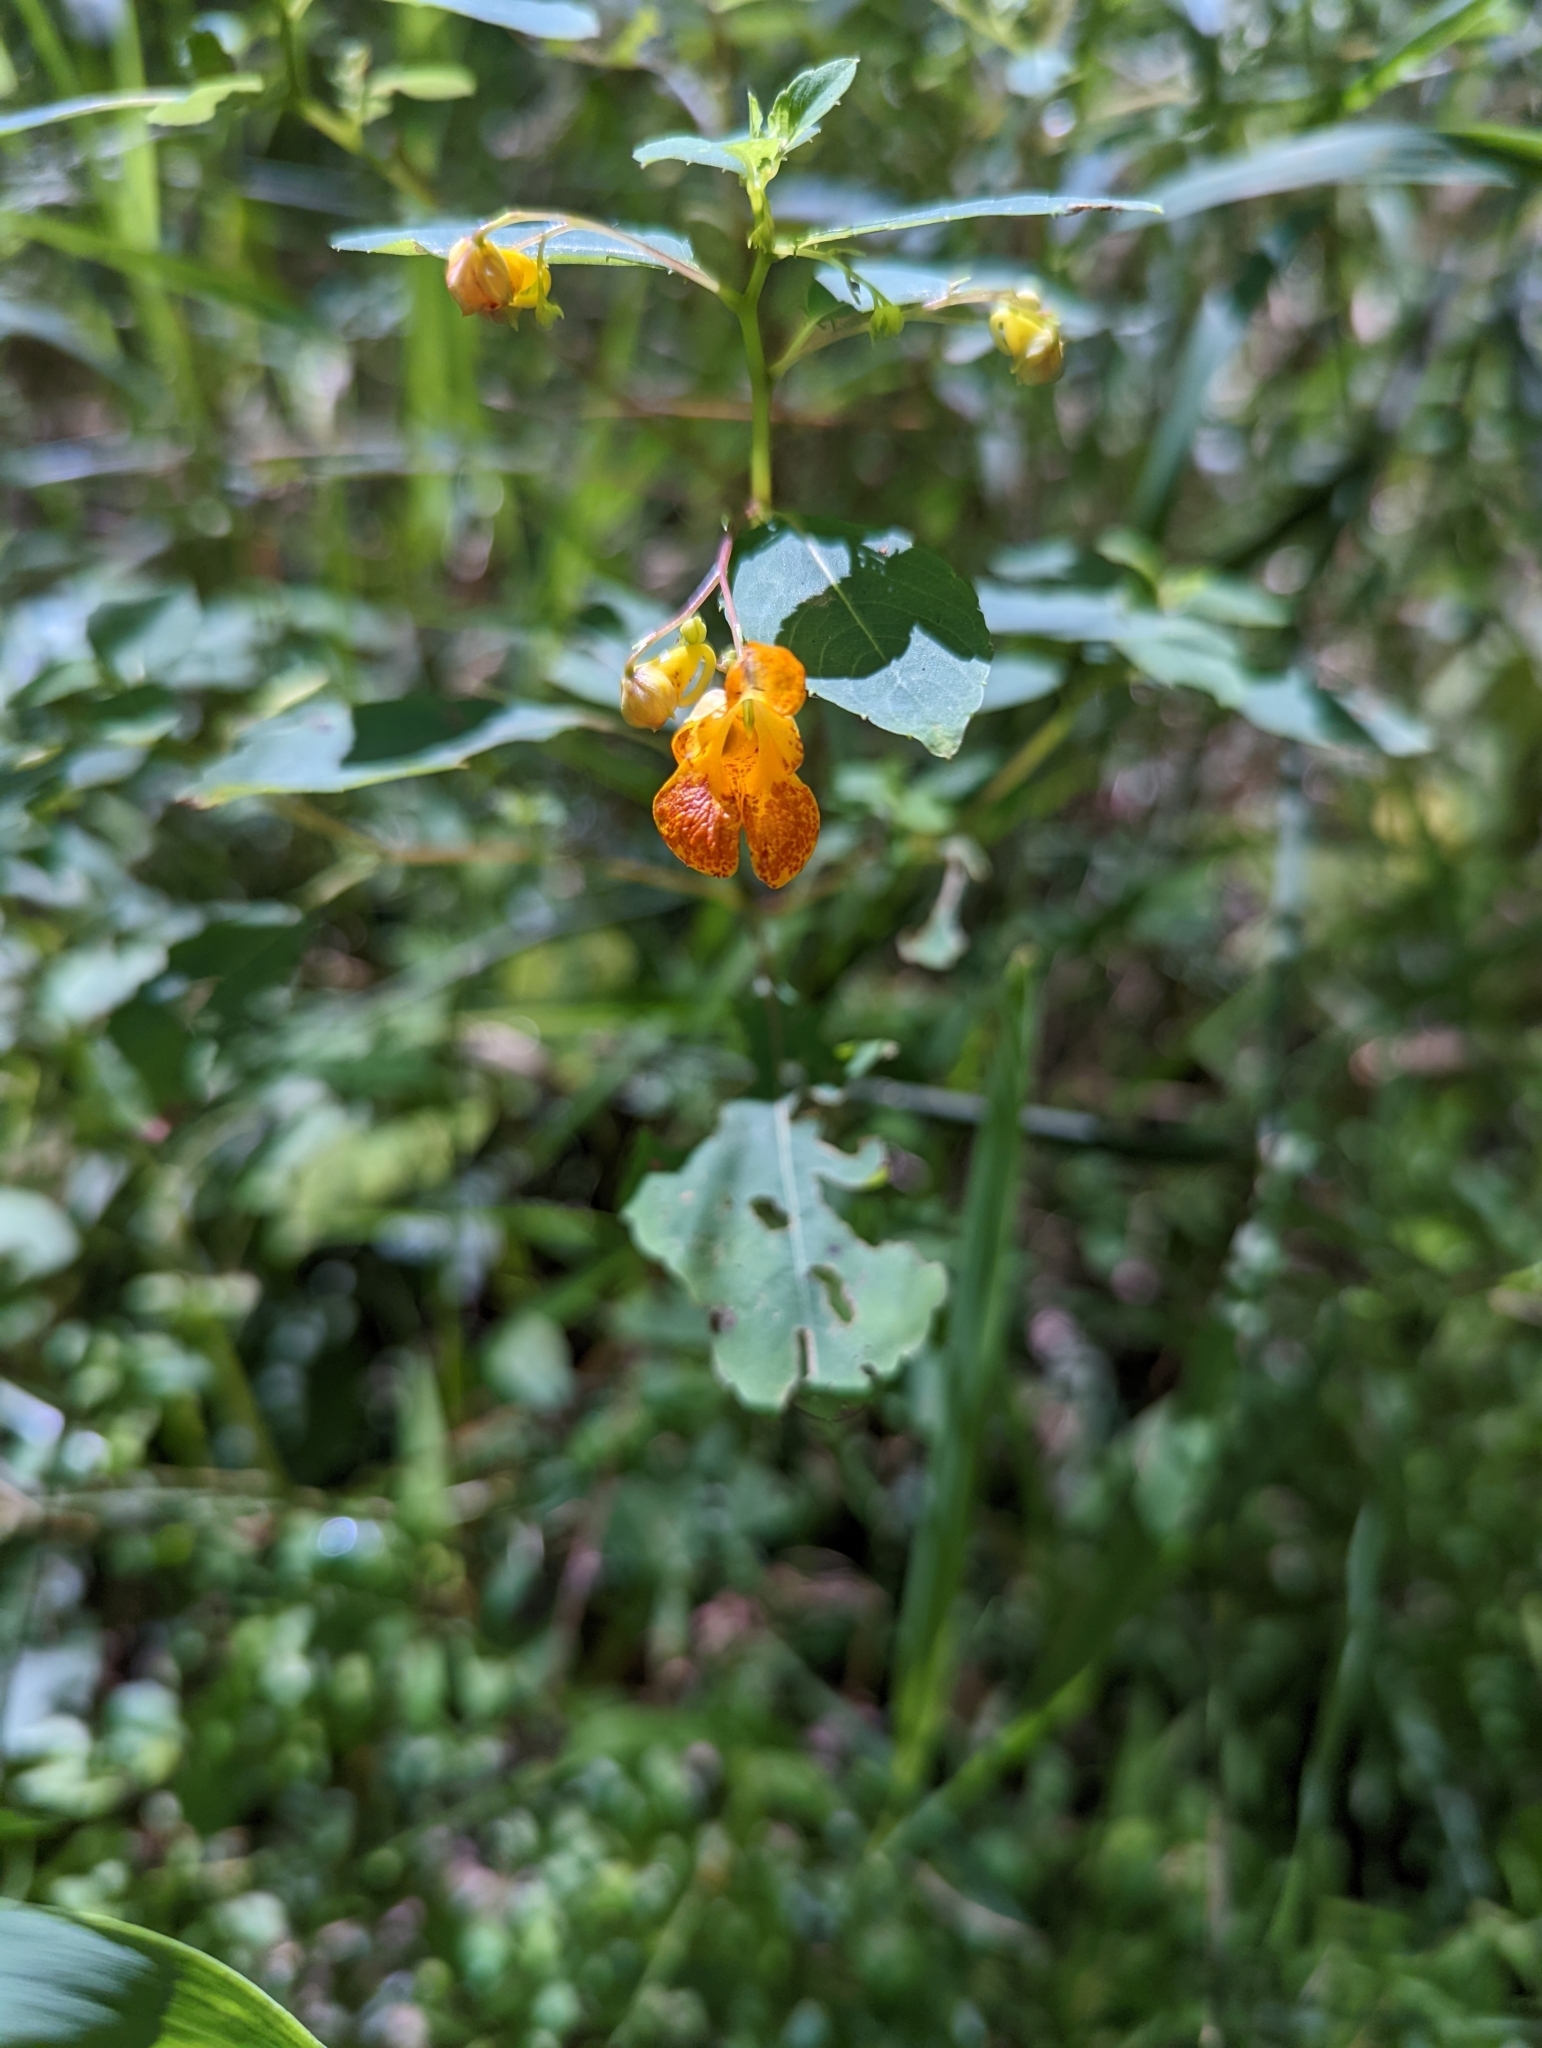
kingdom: Plantae
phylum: Tracheophyta
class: Magnoliopsida
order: Ericales
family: Balsaminaceae
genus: Impatiens
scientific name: Impatiens capensis
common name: Orange balsam
